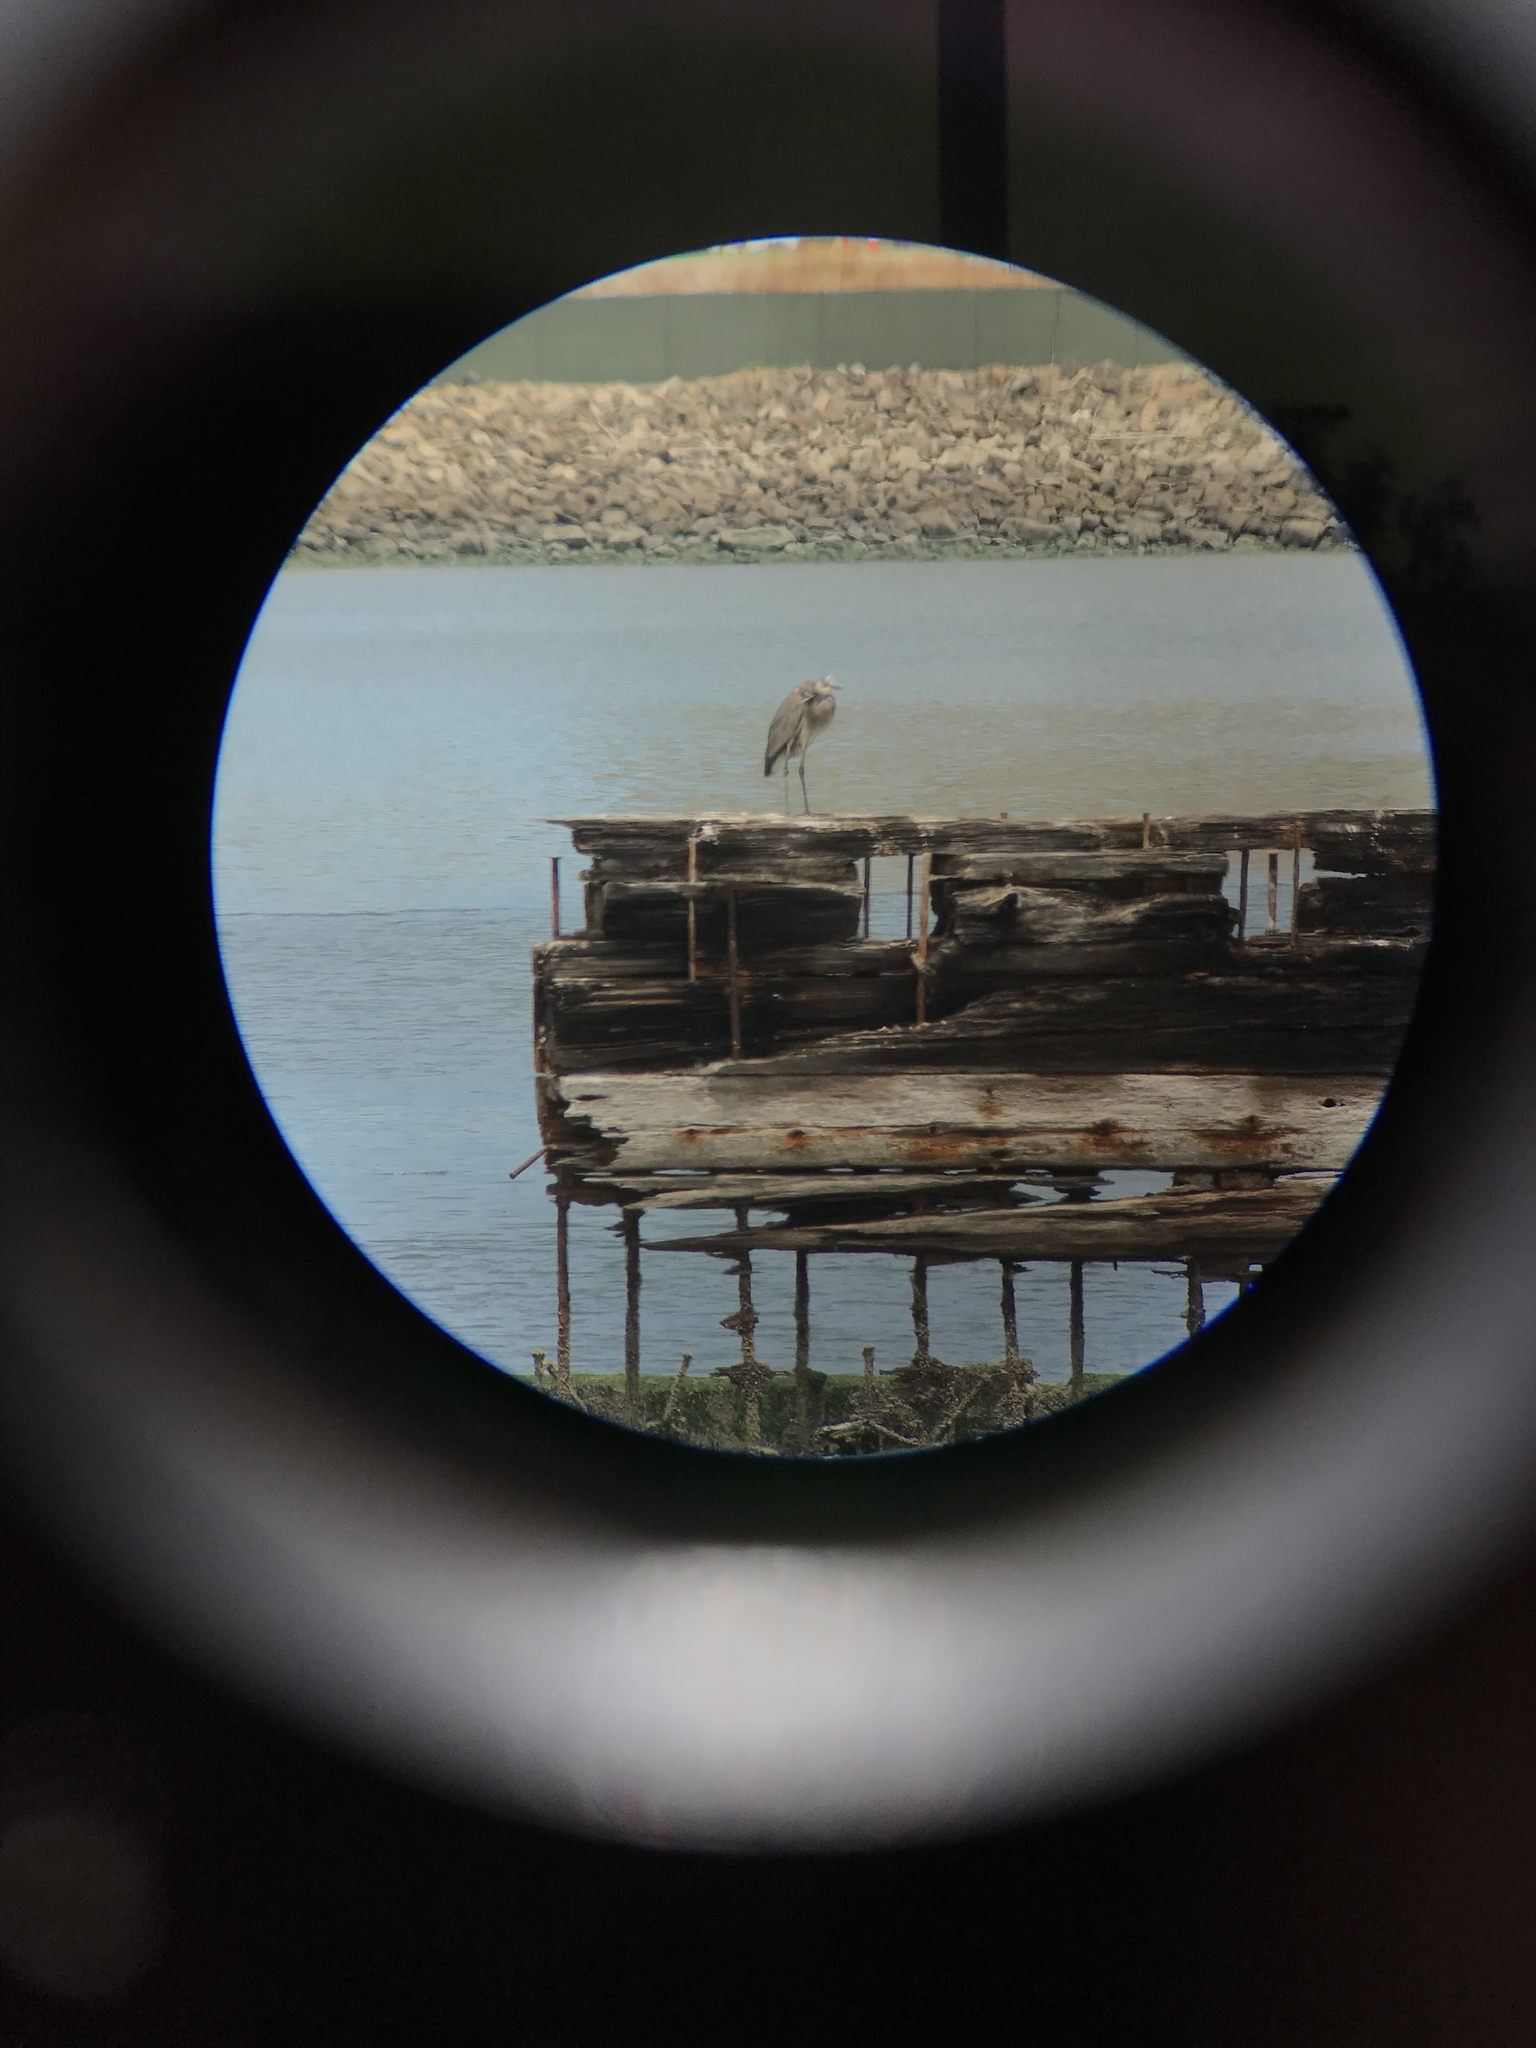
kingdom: Animalia
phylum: Chordata
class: Aves
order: Pelecaniformes
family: Ardeidae
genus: Ardea
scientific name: Ardea herodias
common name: Great blue heron
